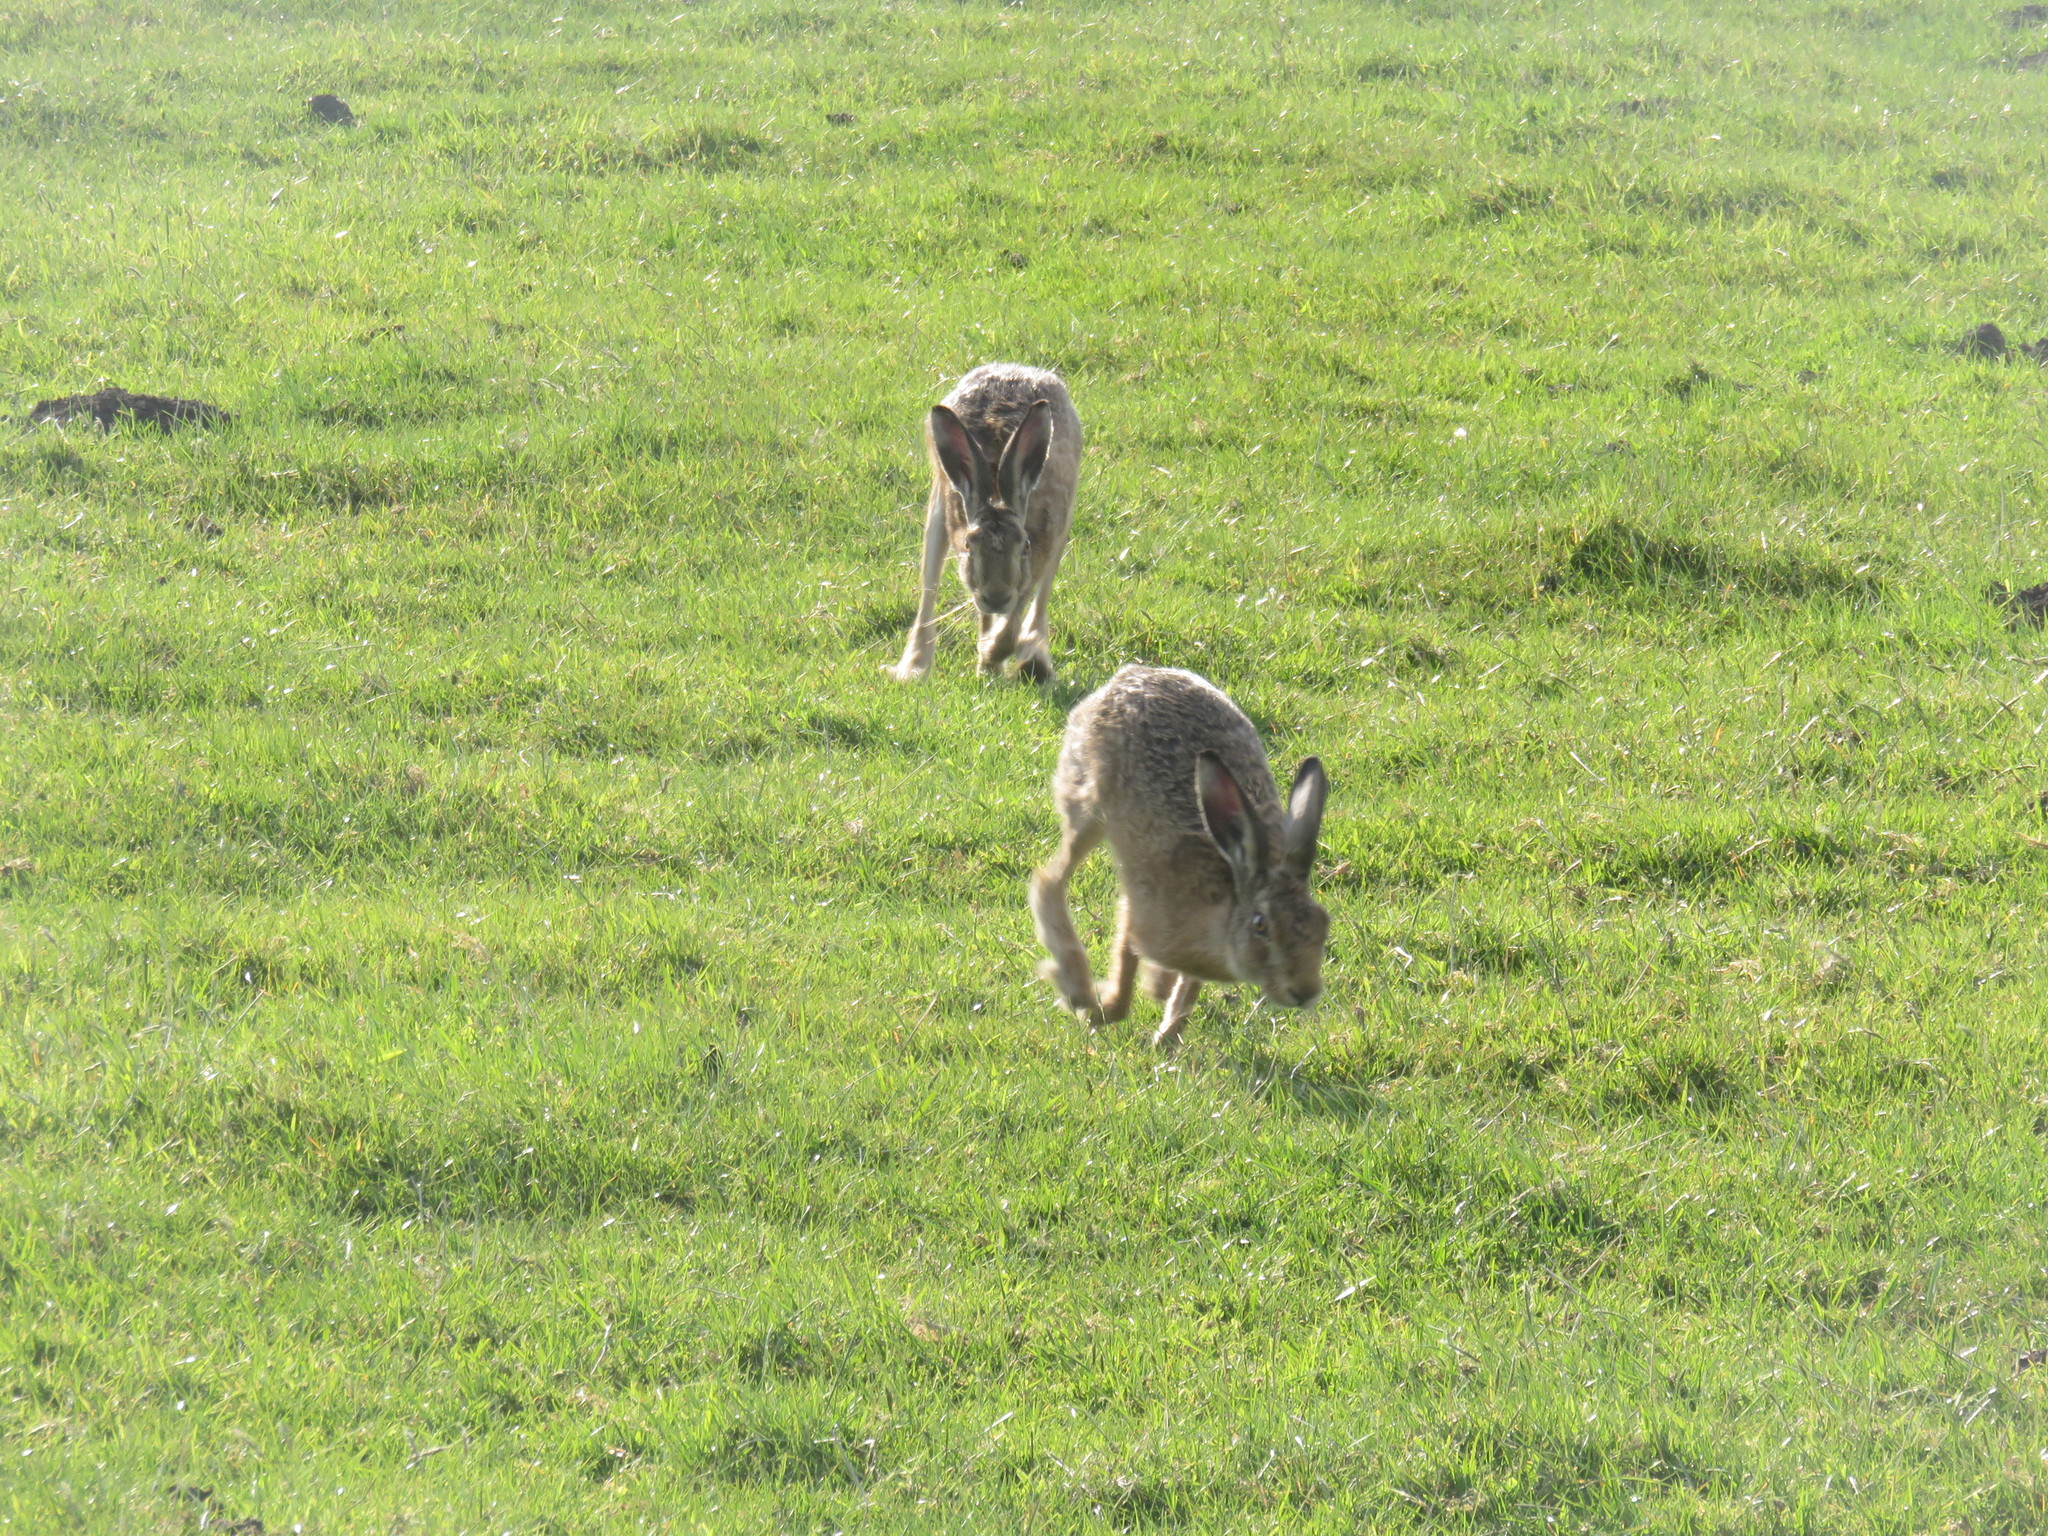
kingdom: Animalia
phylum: Chordata
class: Mammalia
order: Lagomorpha
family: Leporidae
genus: Lepus
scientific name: Lepus europaeus
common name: European hare
